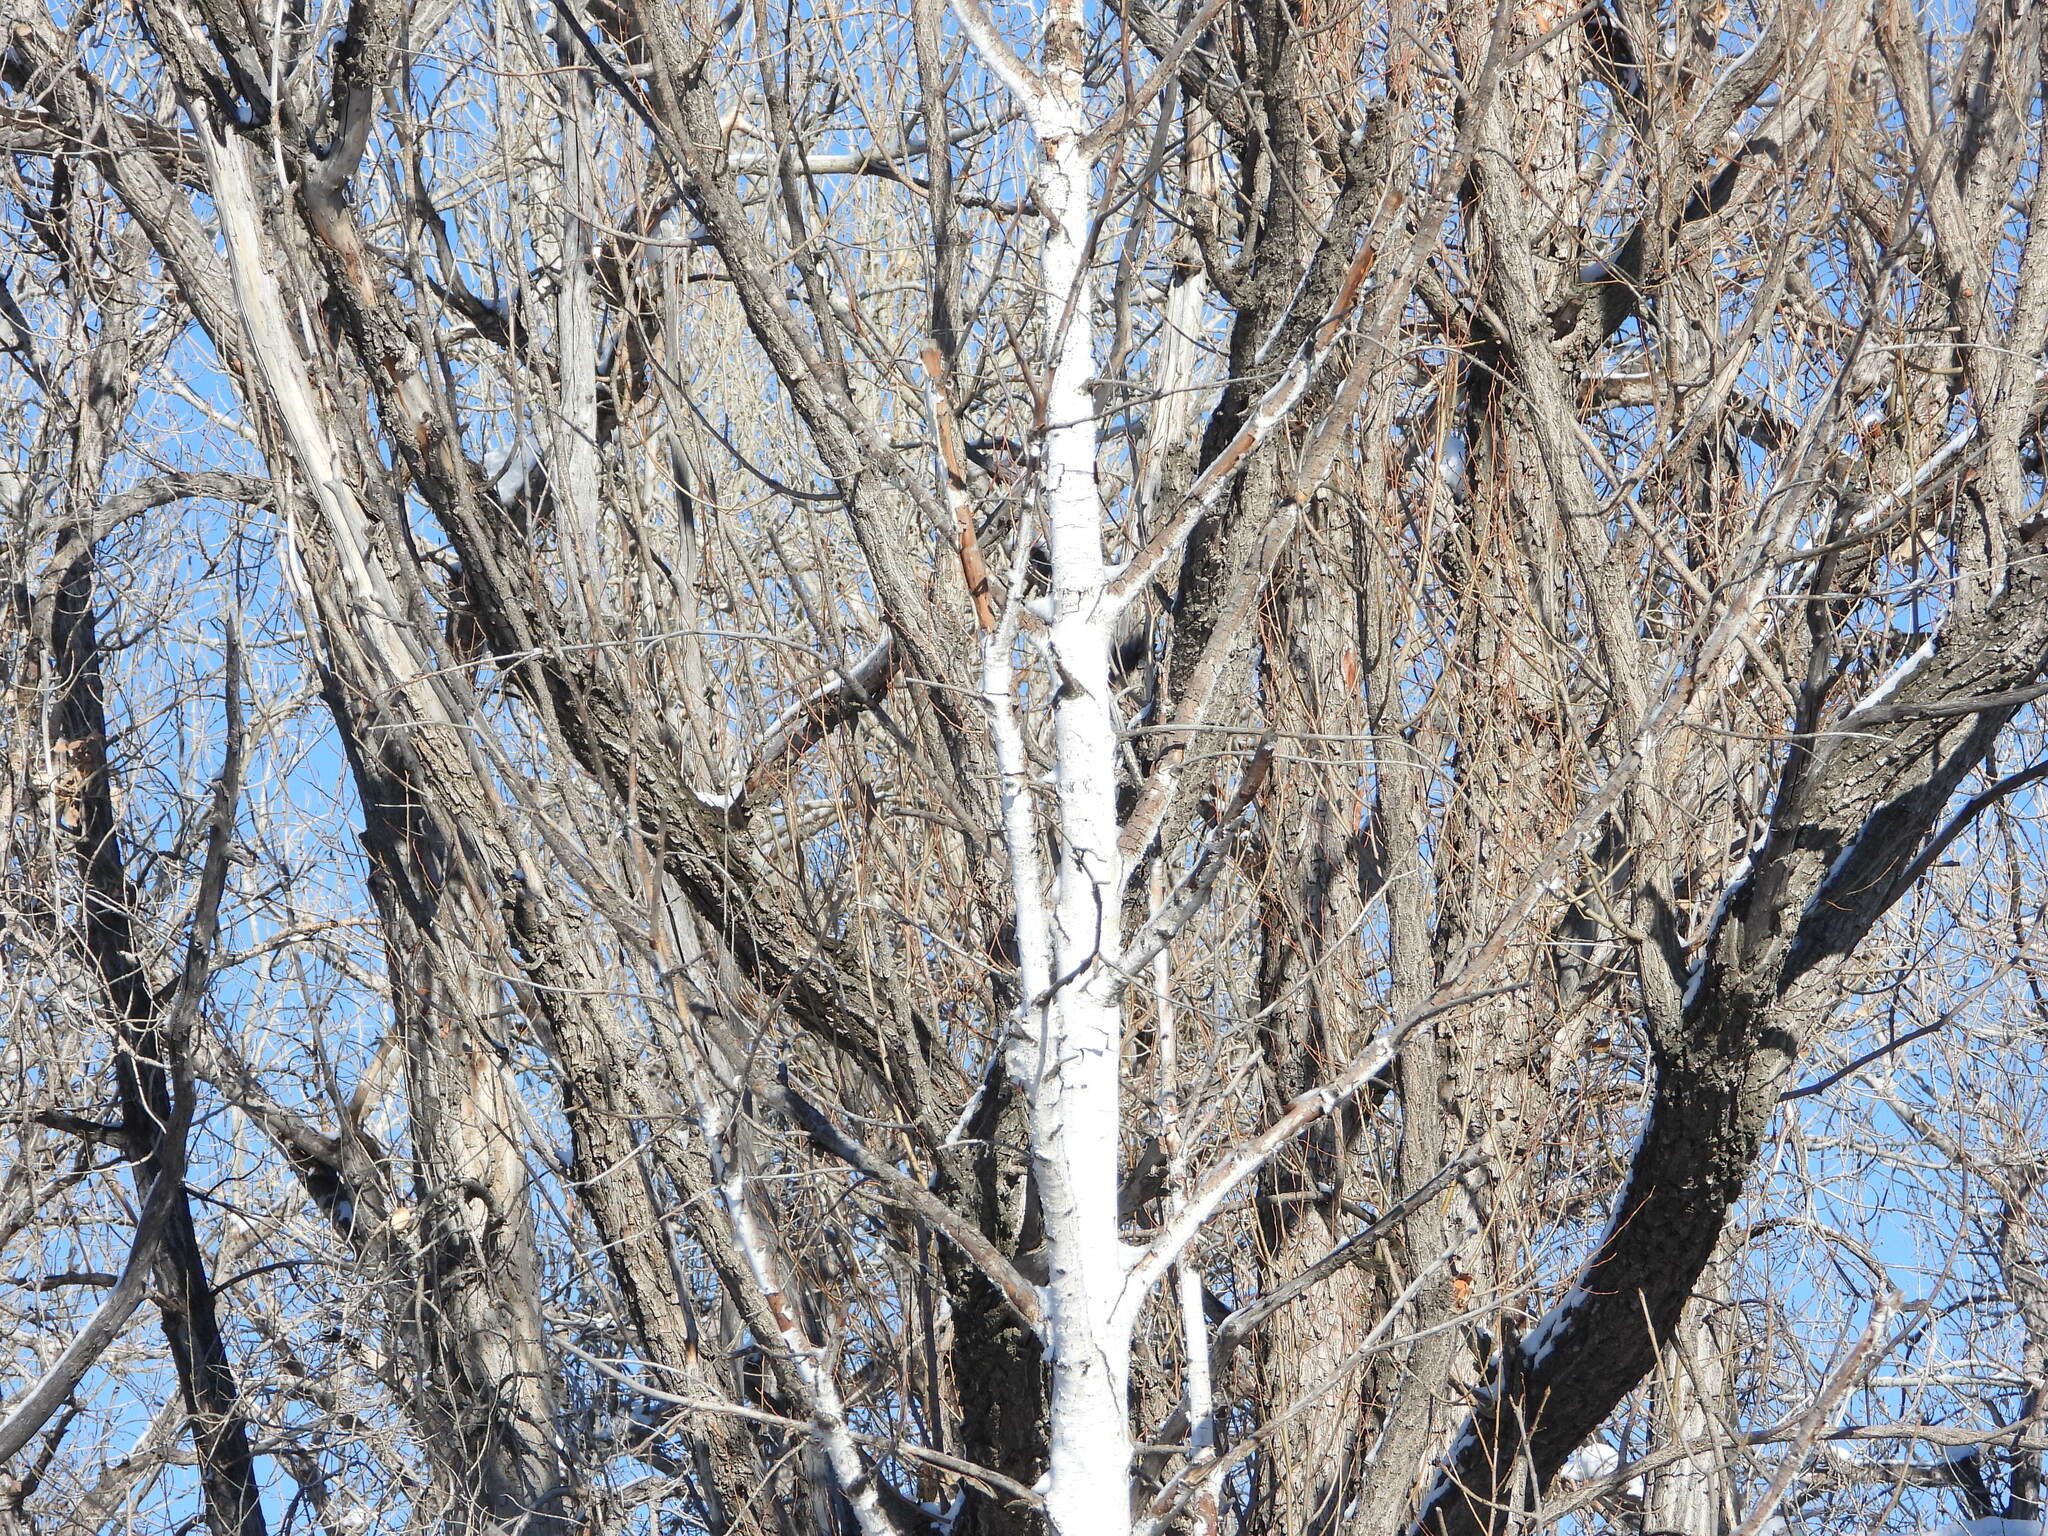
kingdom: Plantae
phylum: Tracheophyta
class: Magnoliopsida
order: Malpighiales
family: Salicaceae
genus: Populus
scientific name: Populus tremuloides
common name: Quaking aspen
